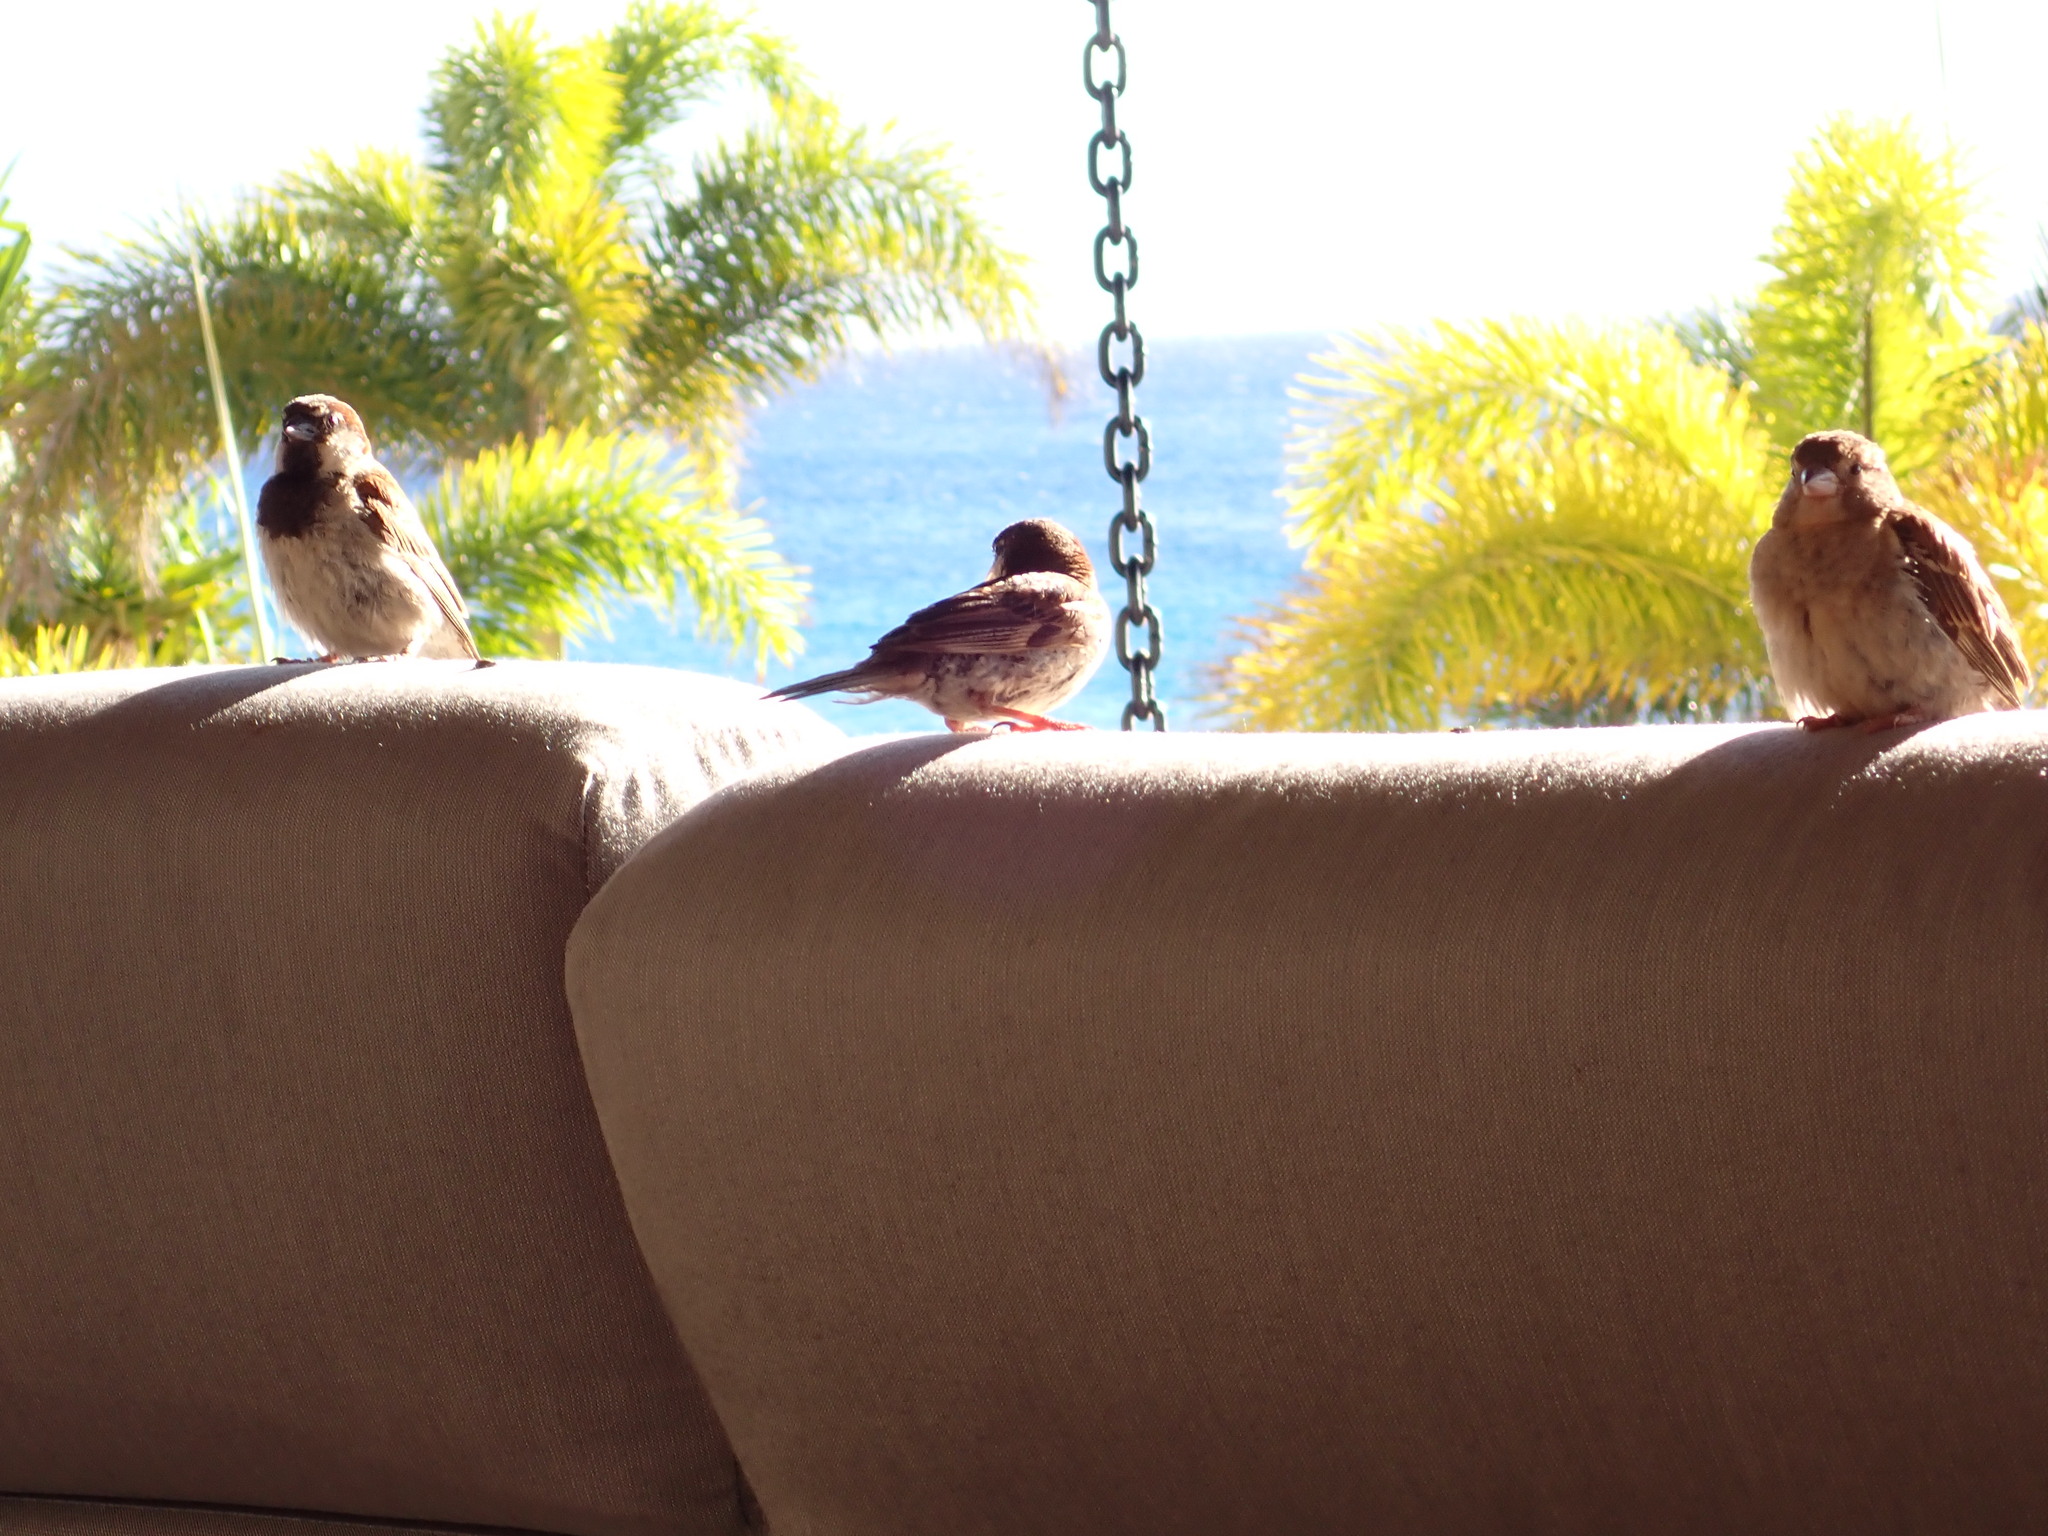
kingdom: Animalia
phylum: Chordata
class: Aves
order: Passeriformes
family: Passeridae
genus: Passer
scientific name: Passer domesticus
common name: House sparrow
